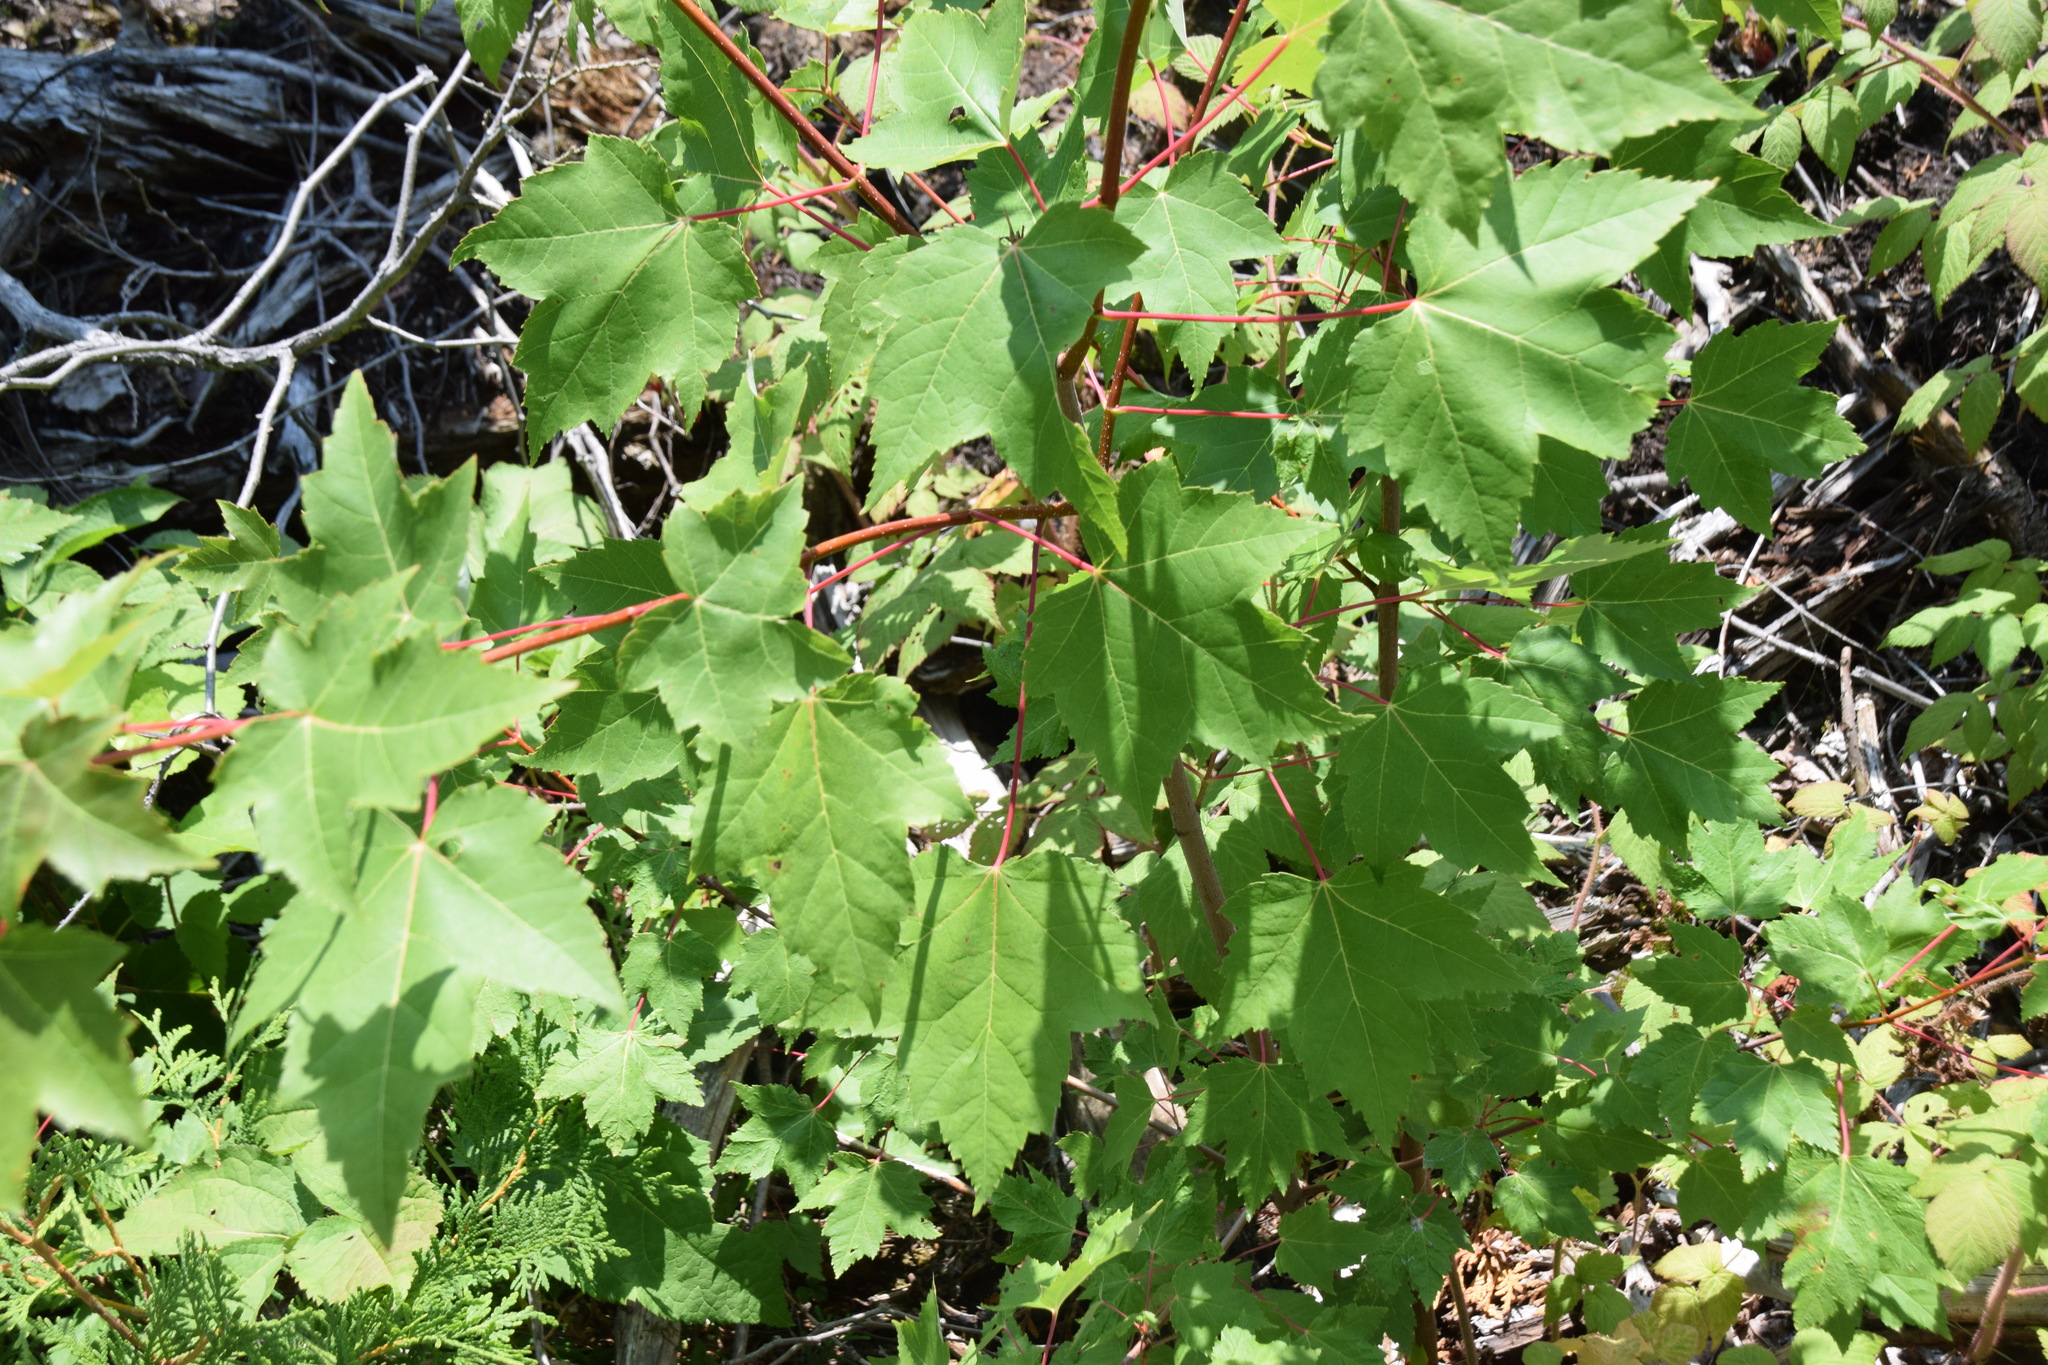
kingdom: Plantae
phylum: Tracheophyta
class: Magnoliopsida
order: Sapindales
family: Sapindaceae
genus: Acer
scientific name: Acer rubrum
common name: Red maple
